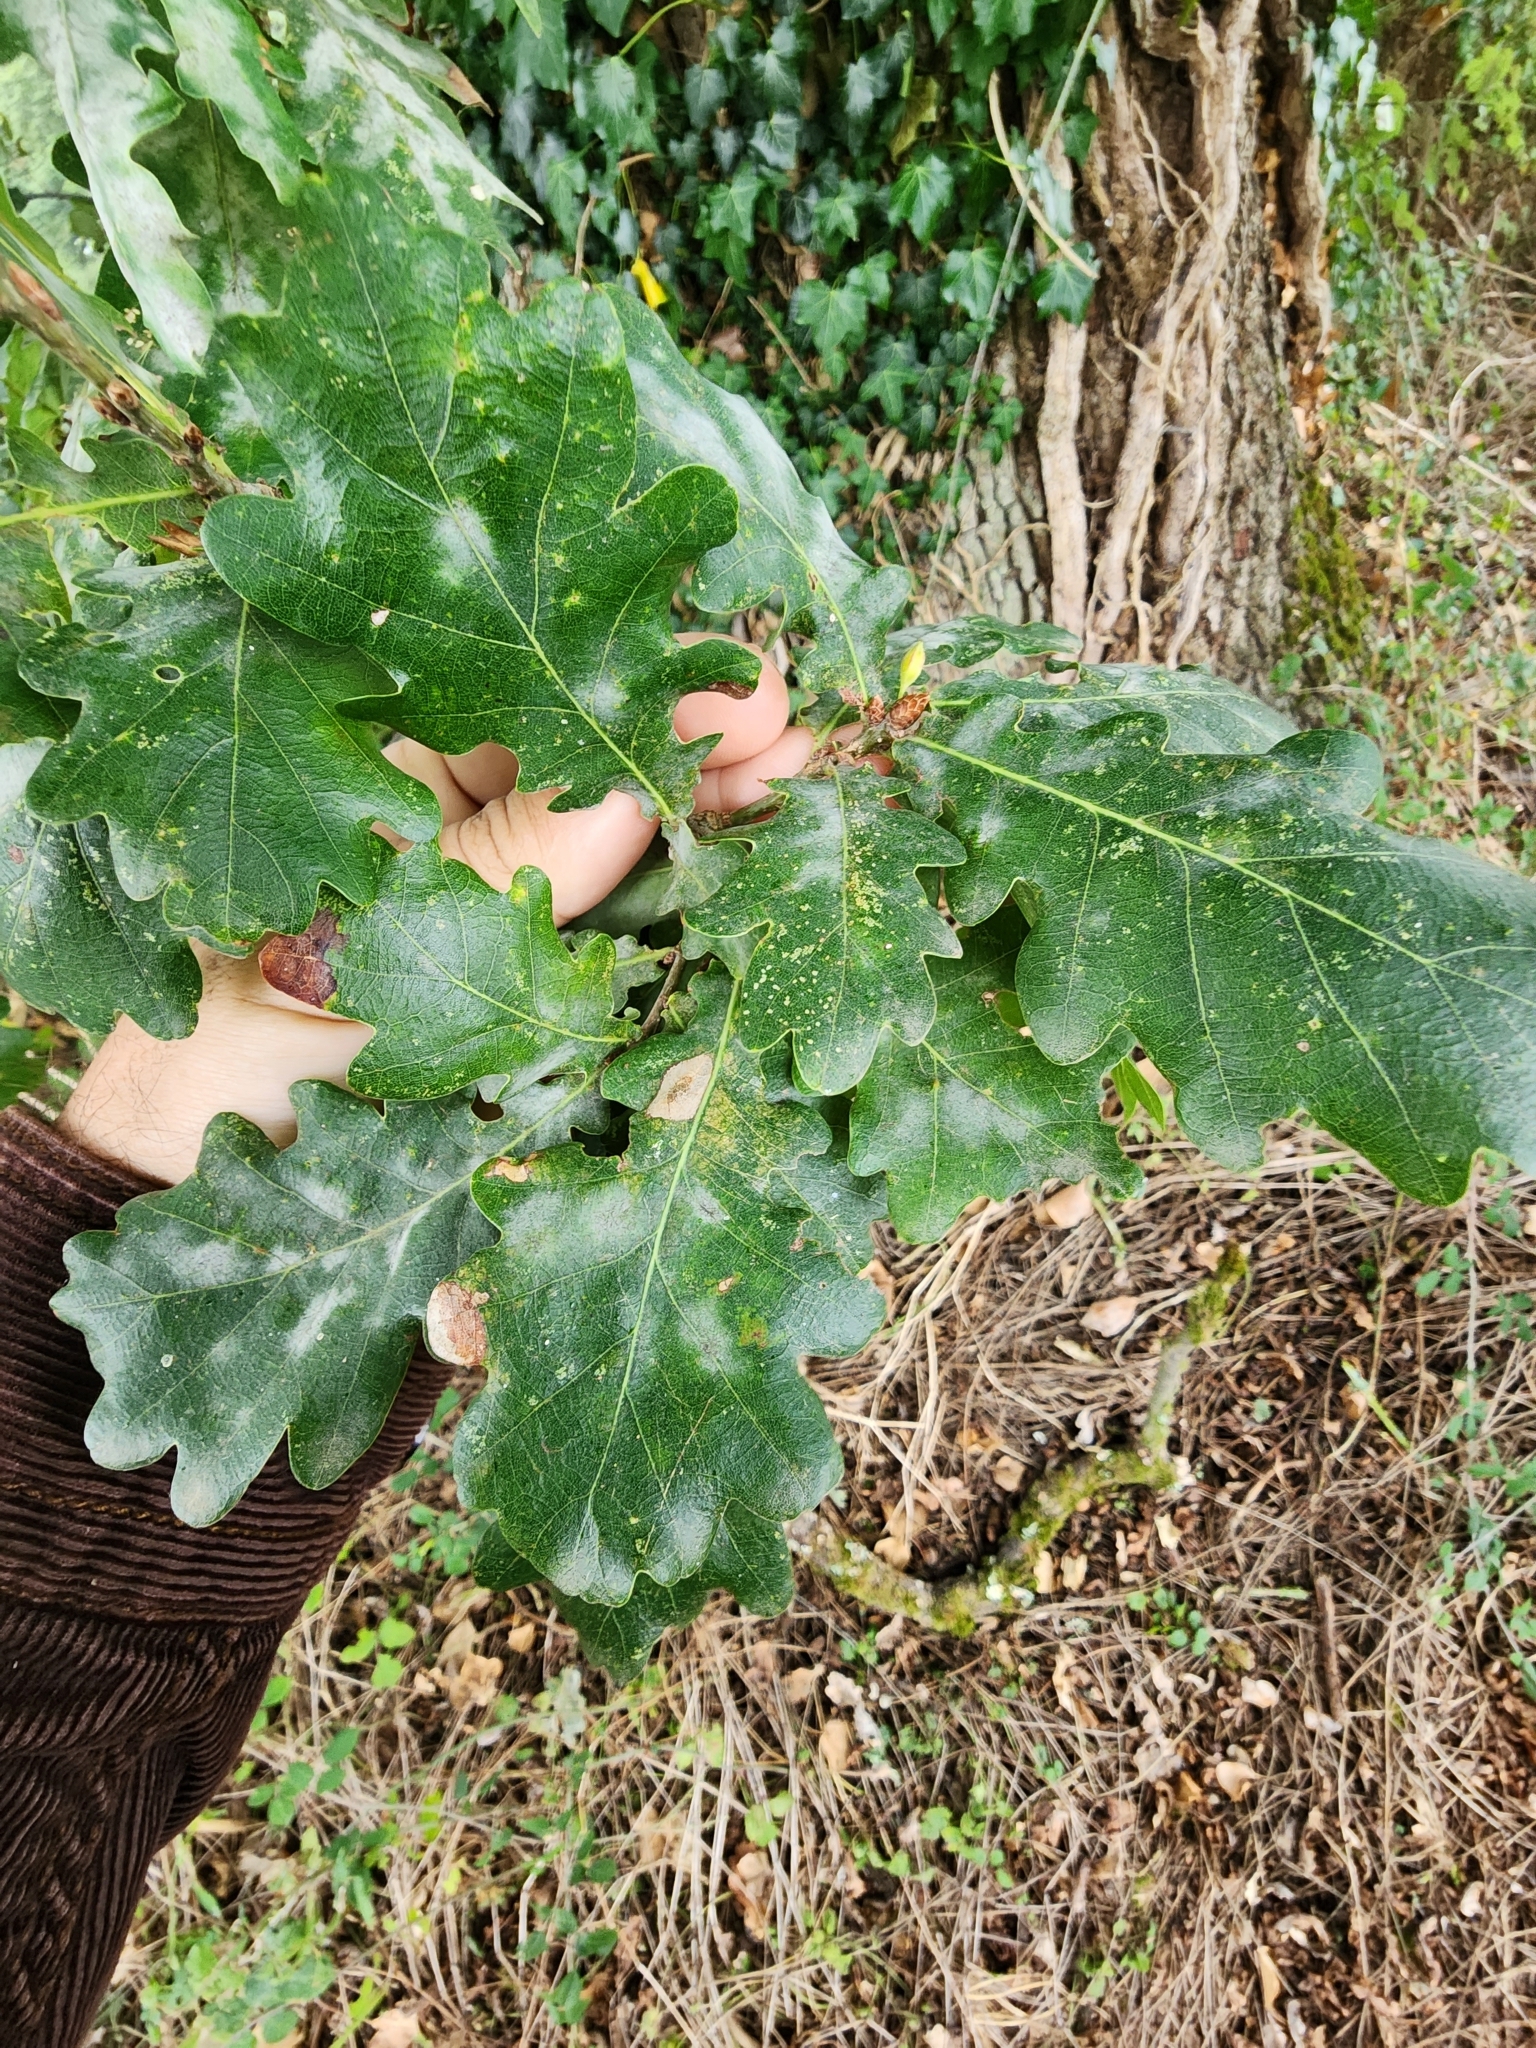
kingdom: Plantae
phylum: Tracheophyta
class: Magnoliopsida
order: Fagales
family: Fagaceae
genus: Quercus
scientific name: Quercus robur
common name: Pedunculate oak
